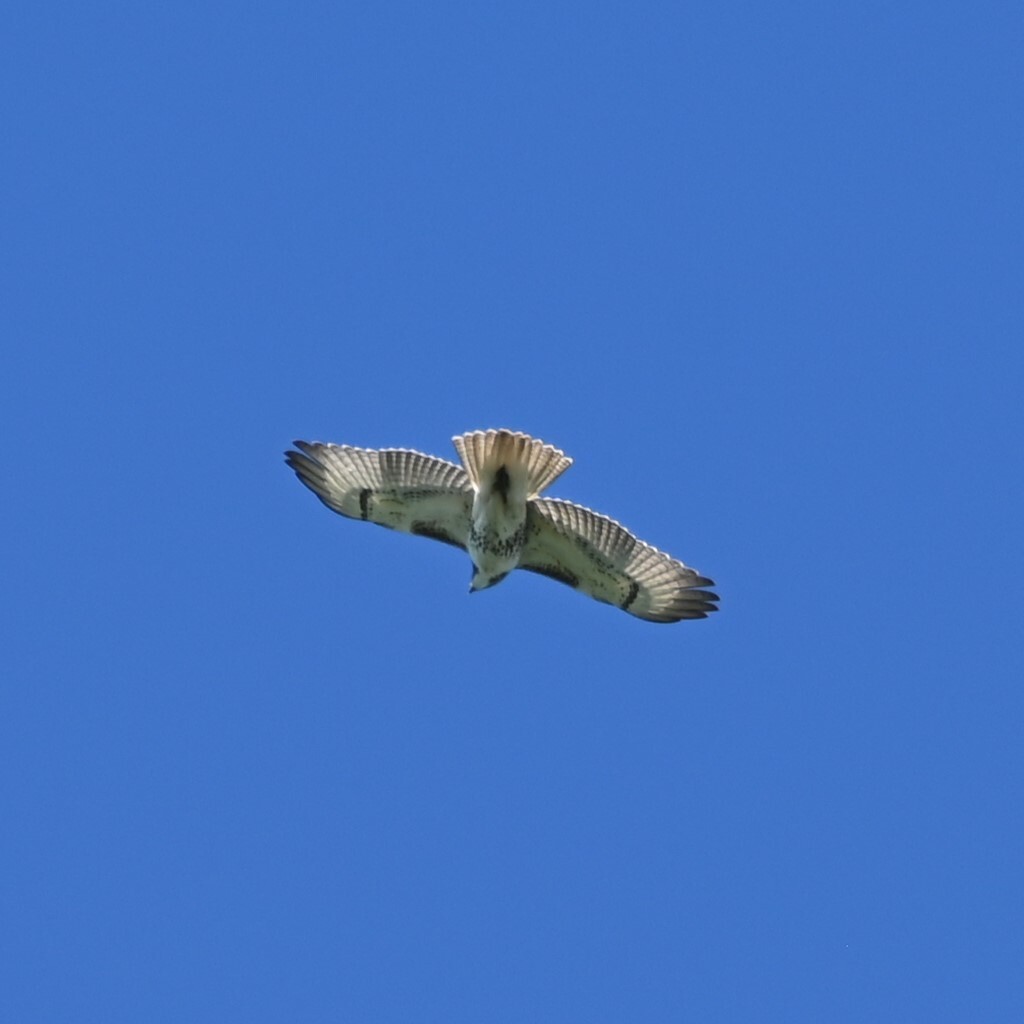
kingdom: Animalia
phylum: Chordata
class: Aves
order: Accipitriformes
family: Accipitridae
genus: Buteo
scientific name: Buteo jamaicensis
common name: Red-tailed hawk
